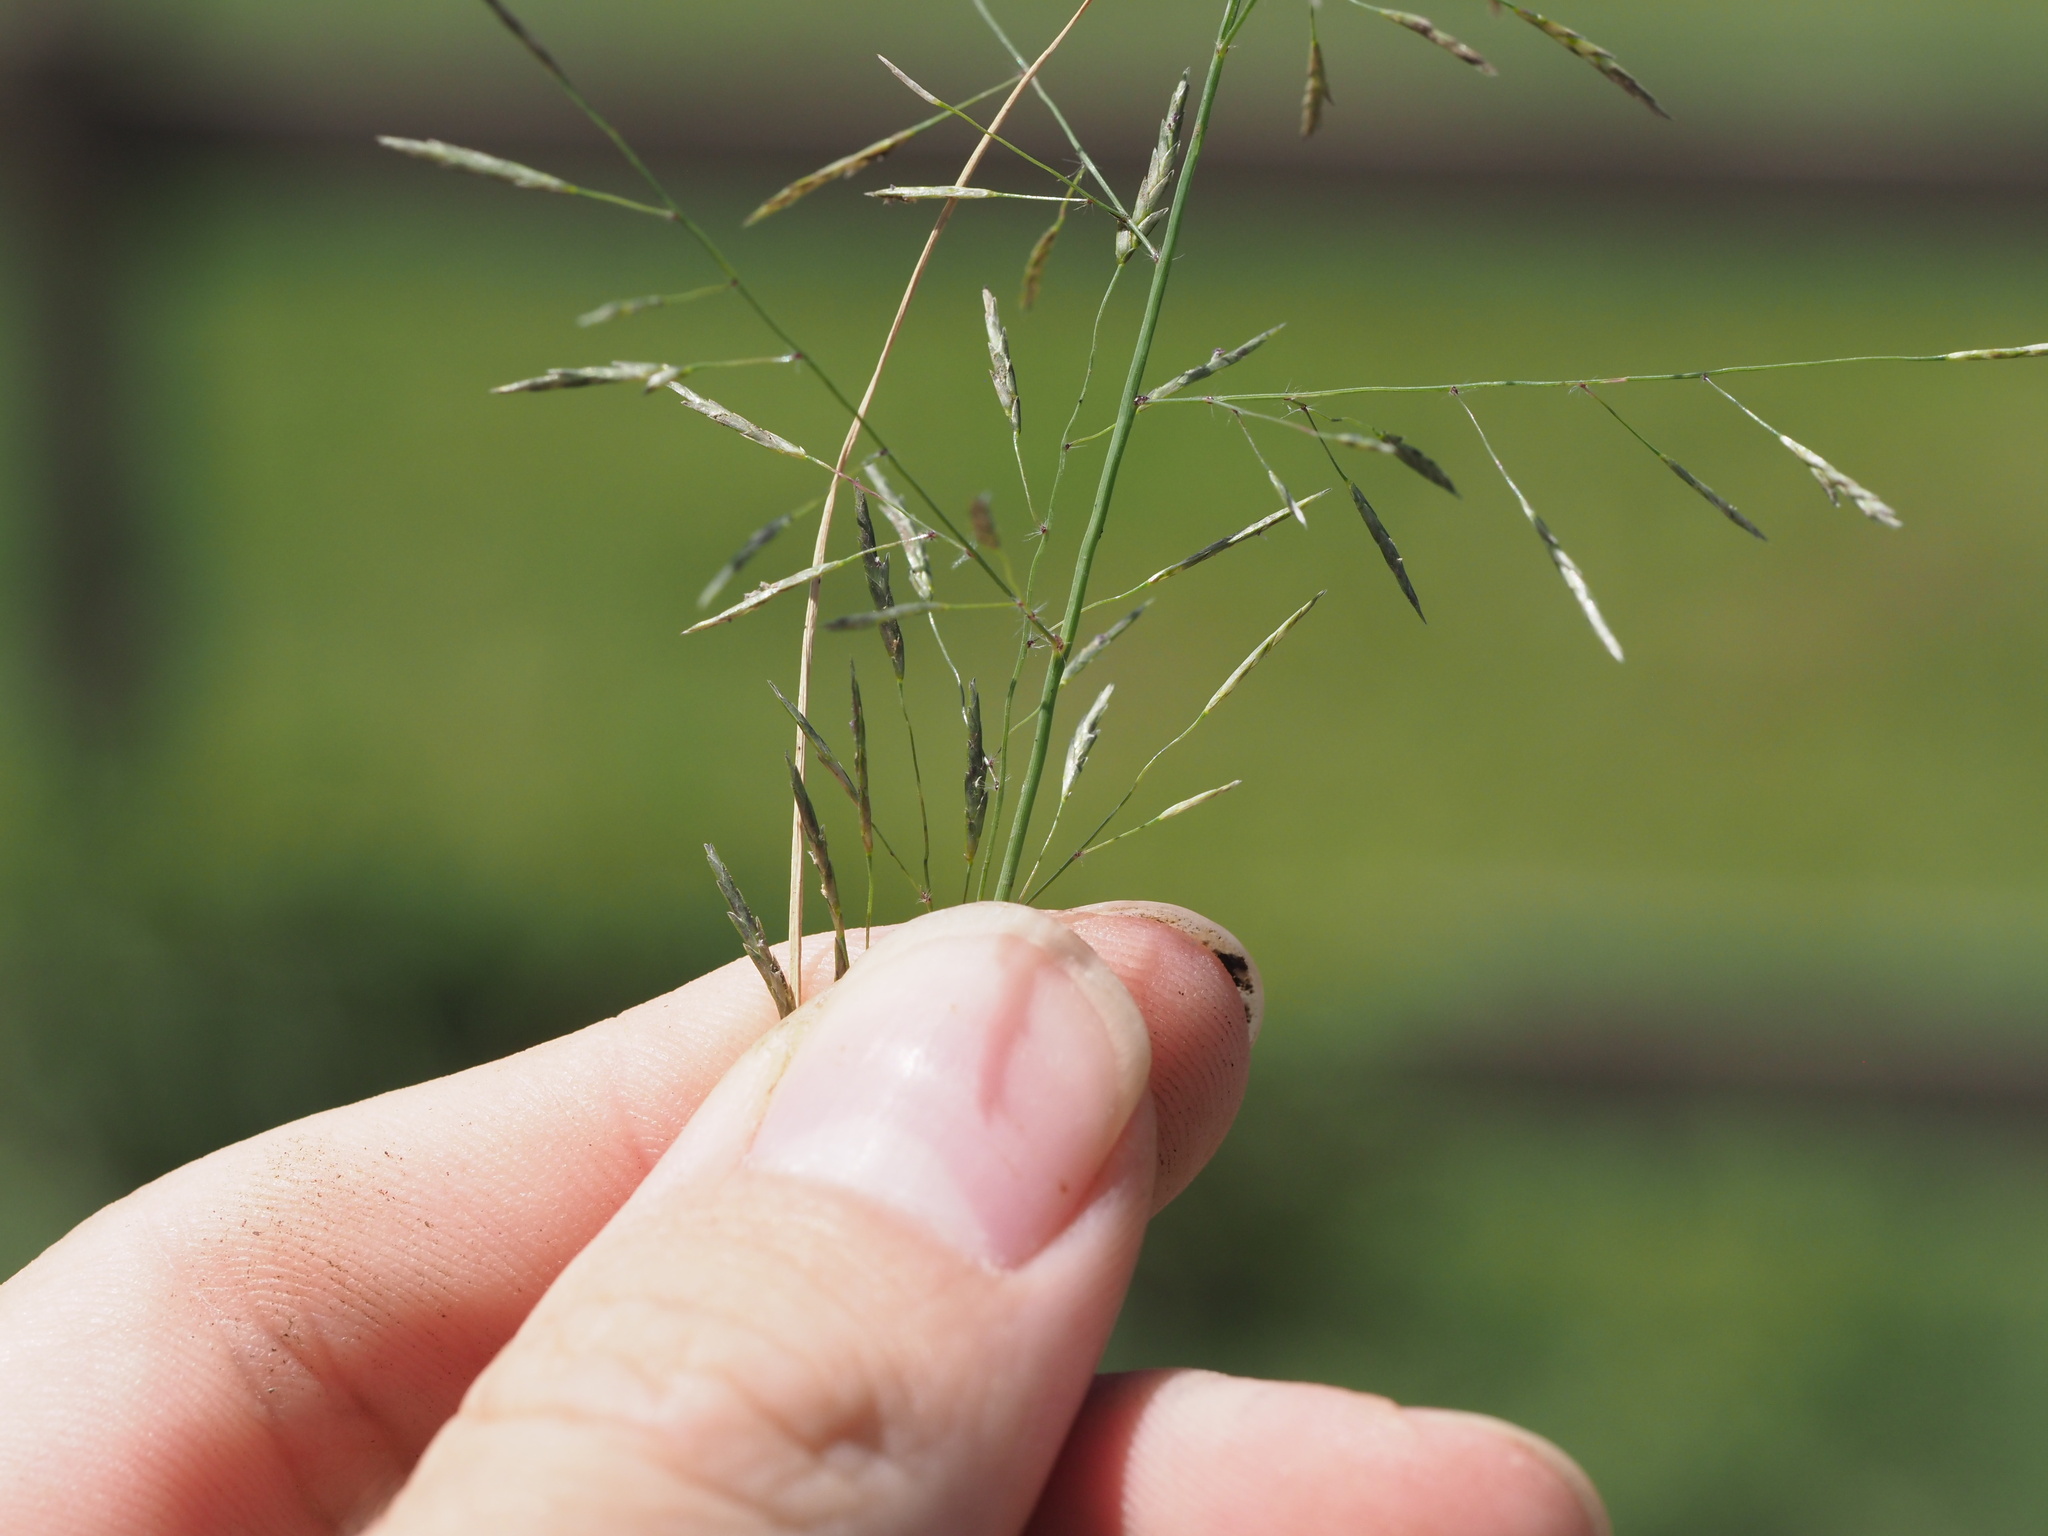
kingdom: Plantae
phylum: Tracheophyta
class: Liliopsida
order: Poales
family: Poaceae
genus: Eragrostis
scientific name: Eragrostis tenuifolia
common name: Elastic grass
